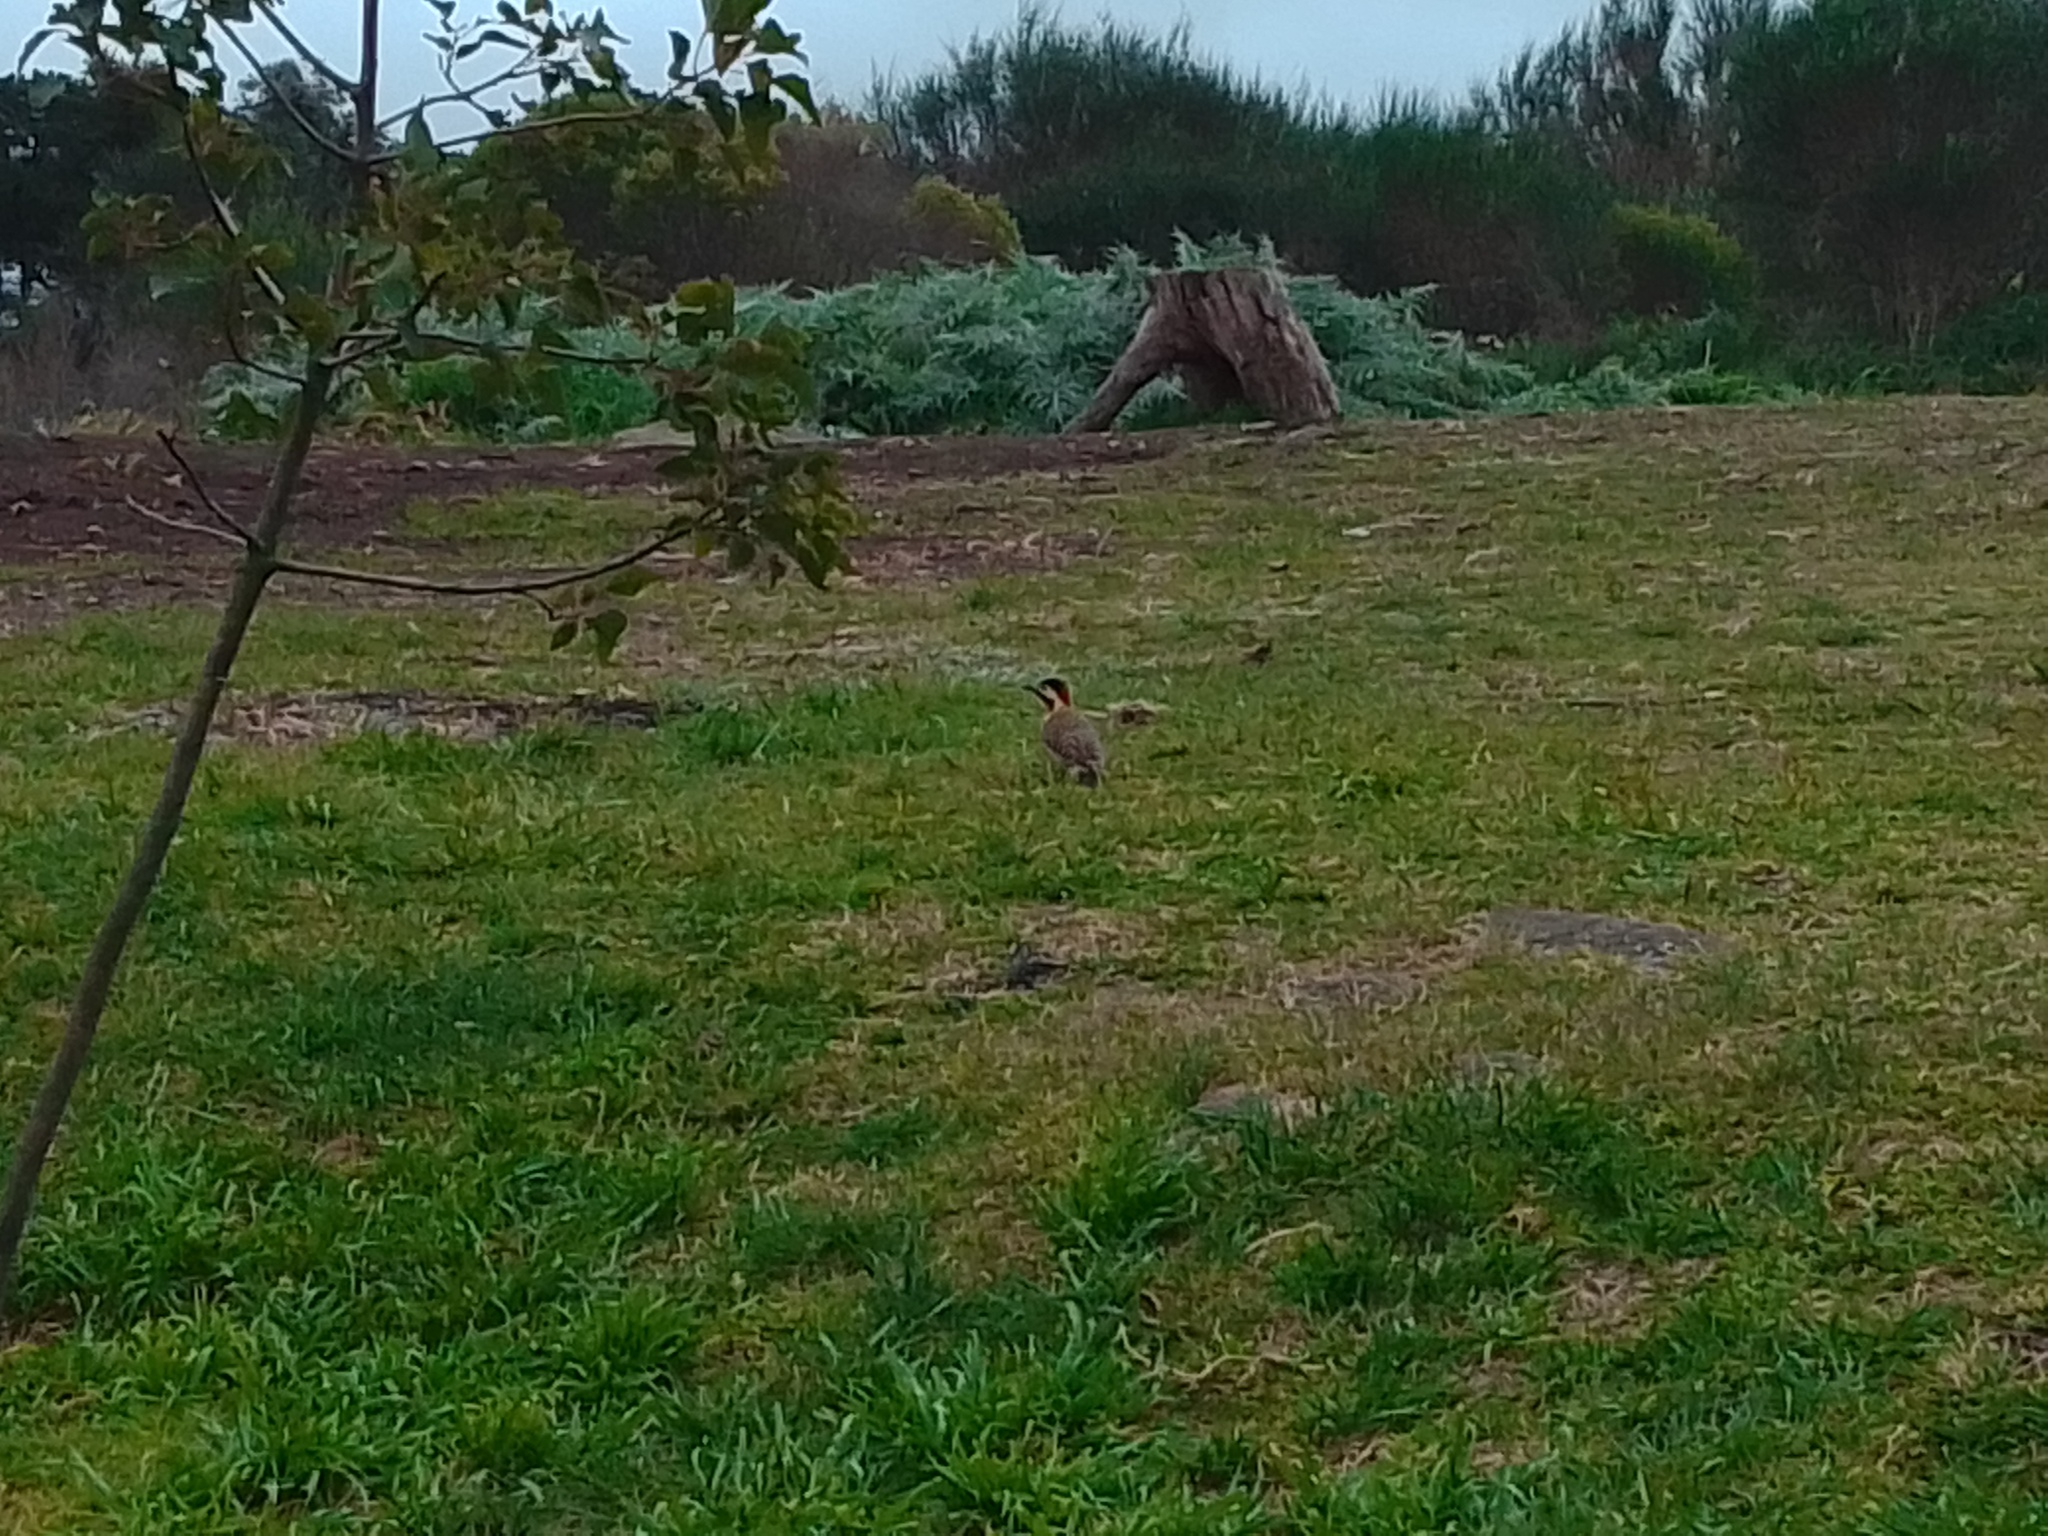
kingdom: Animalia
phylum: Chordata
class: Aves
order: Piciformes
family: Picidae
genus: Colaptes
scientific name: Colaptes melanochloros
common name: Green-barred woodpecker
